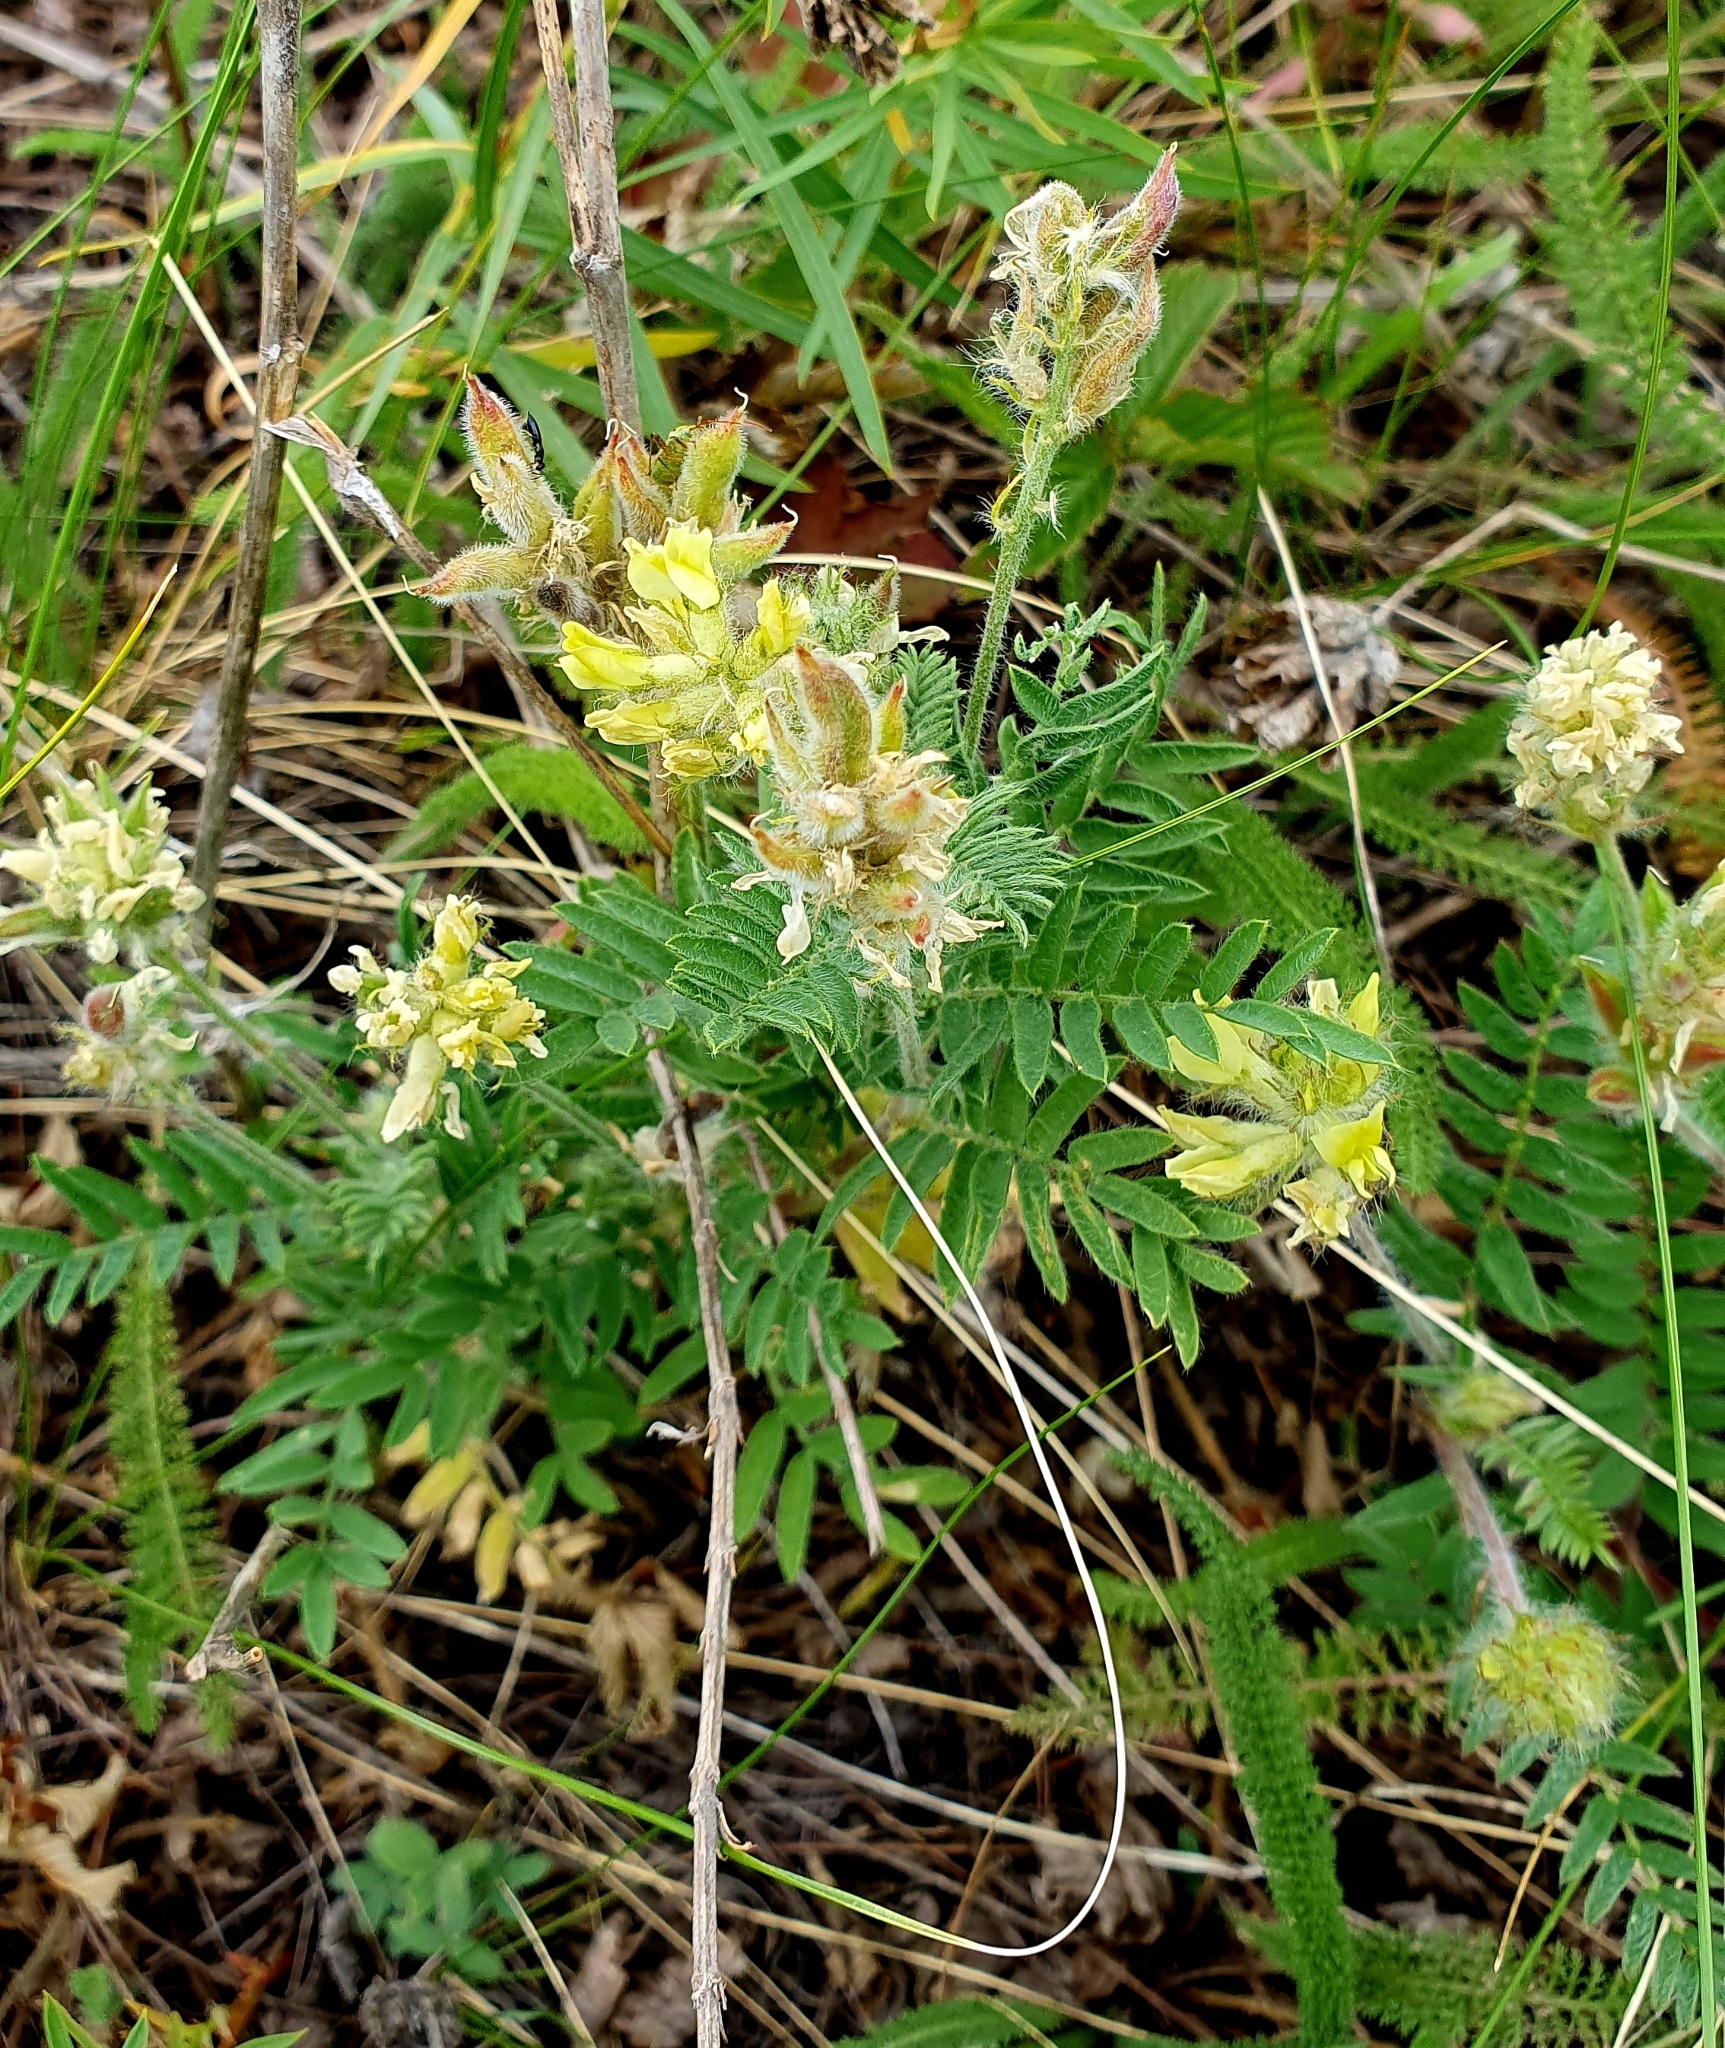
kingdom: Plantae
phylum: Tracheophyta
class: Magnoliopsida
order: Fabales
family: Fabaceae
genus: Oxytropis
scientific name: Oxytropis pilosa
